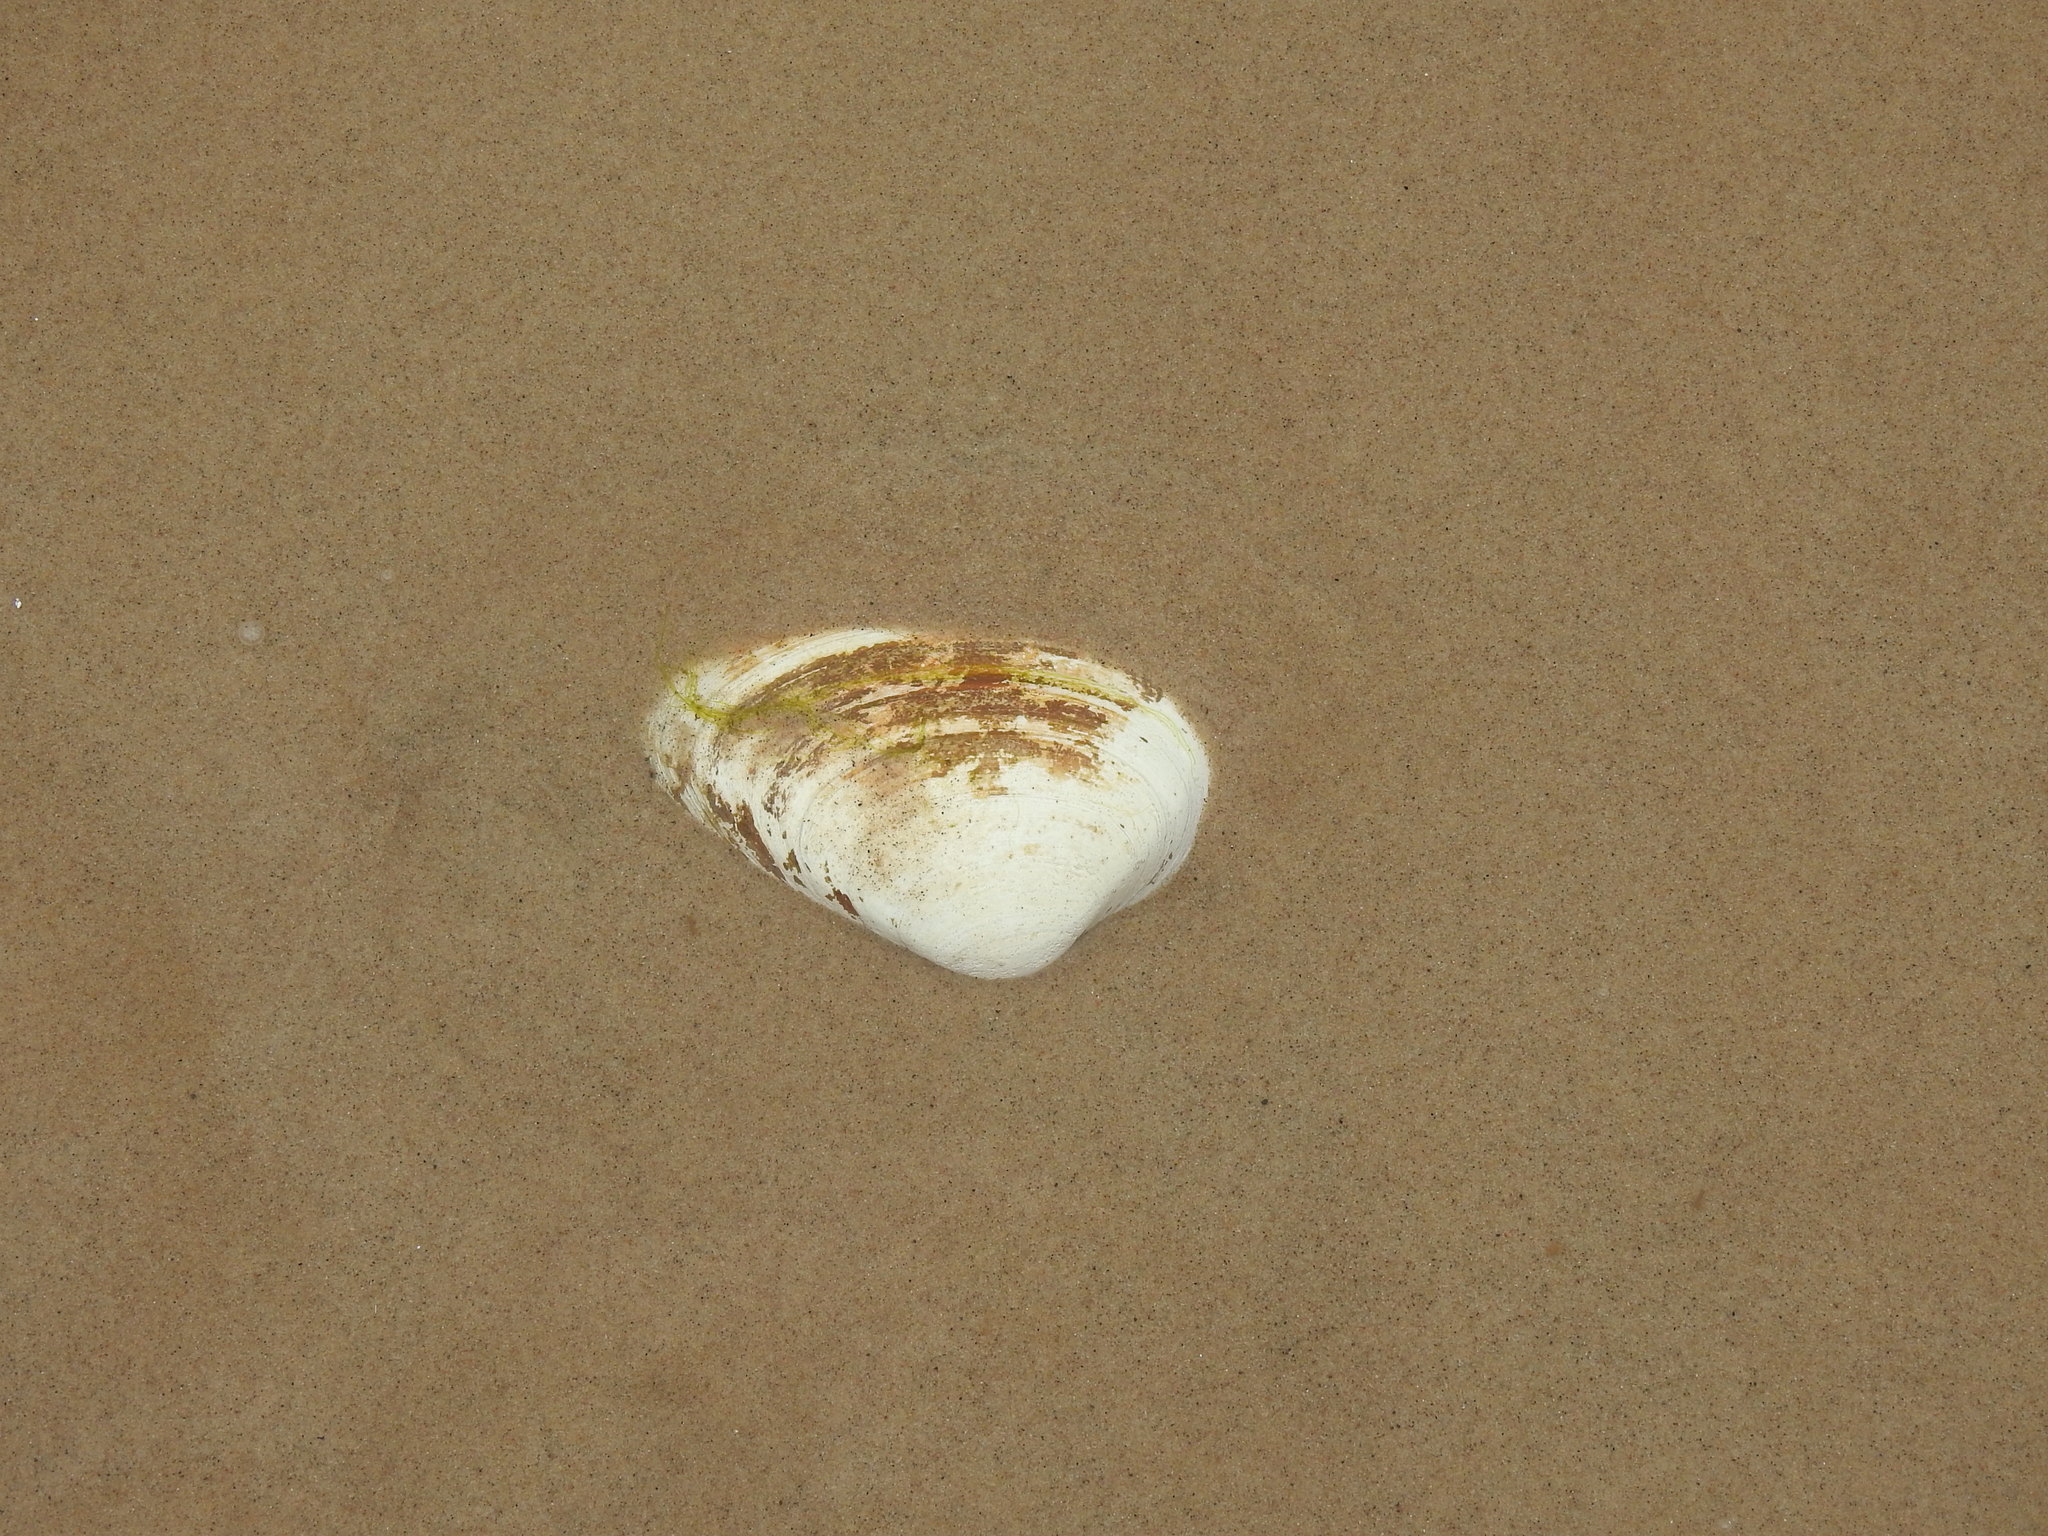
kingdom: Animalia
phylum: Mollusca
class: Bivalvia
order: Venerida
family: Mactridae
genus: Spisula
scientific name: Spisula solidissima
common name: Atlantic surf clam
